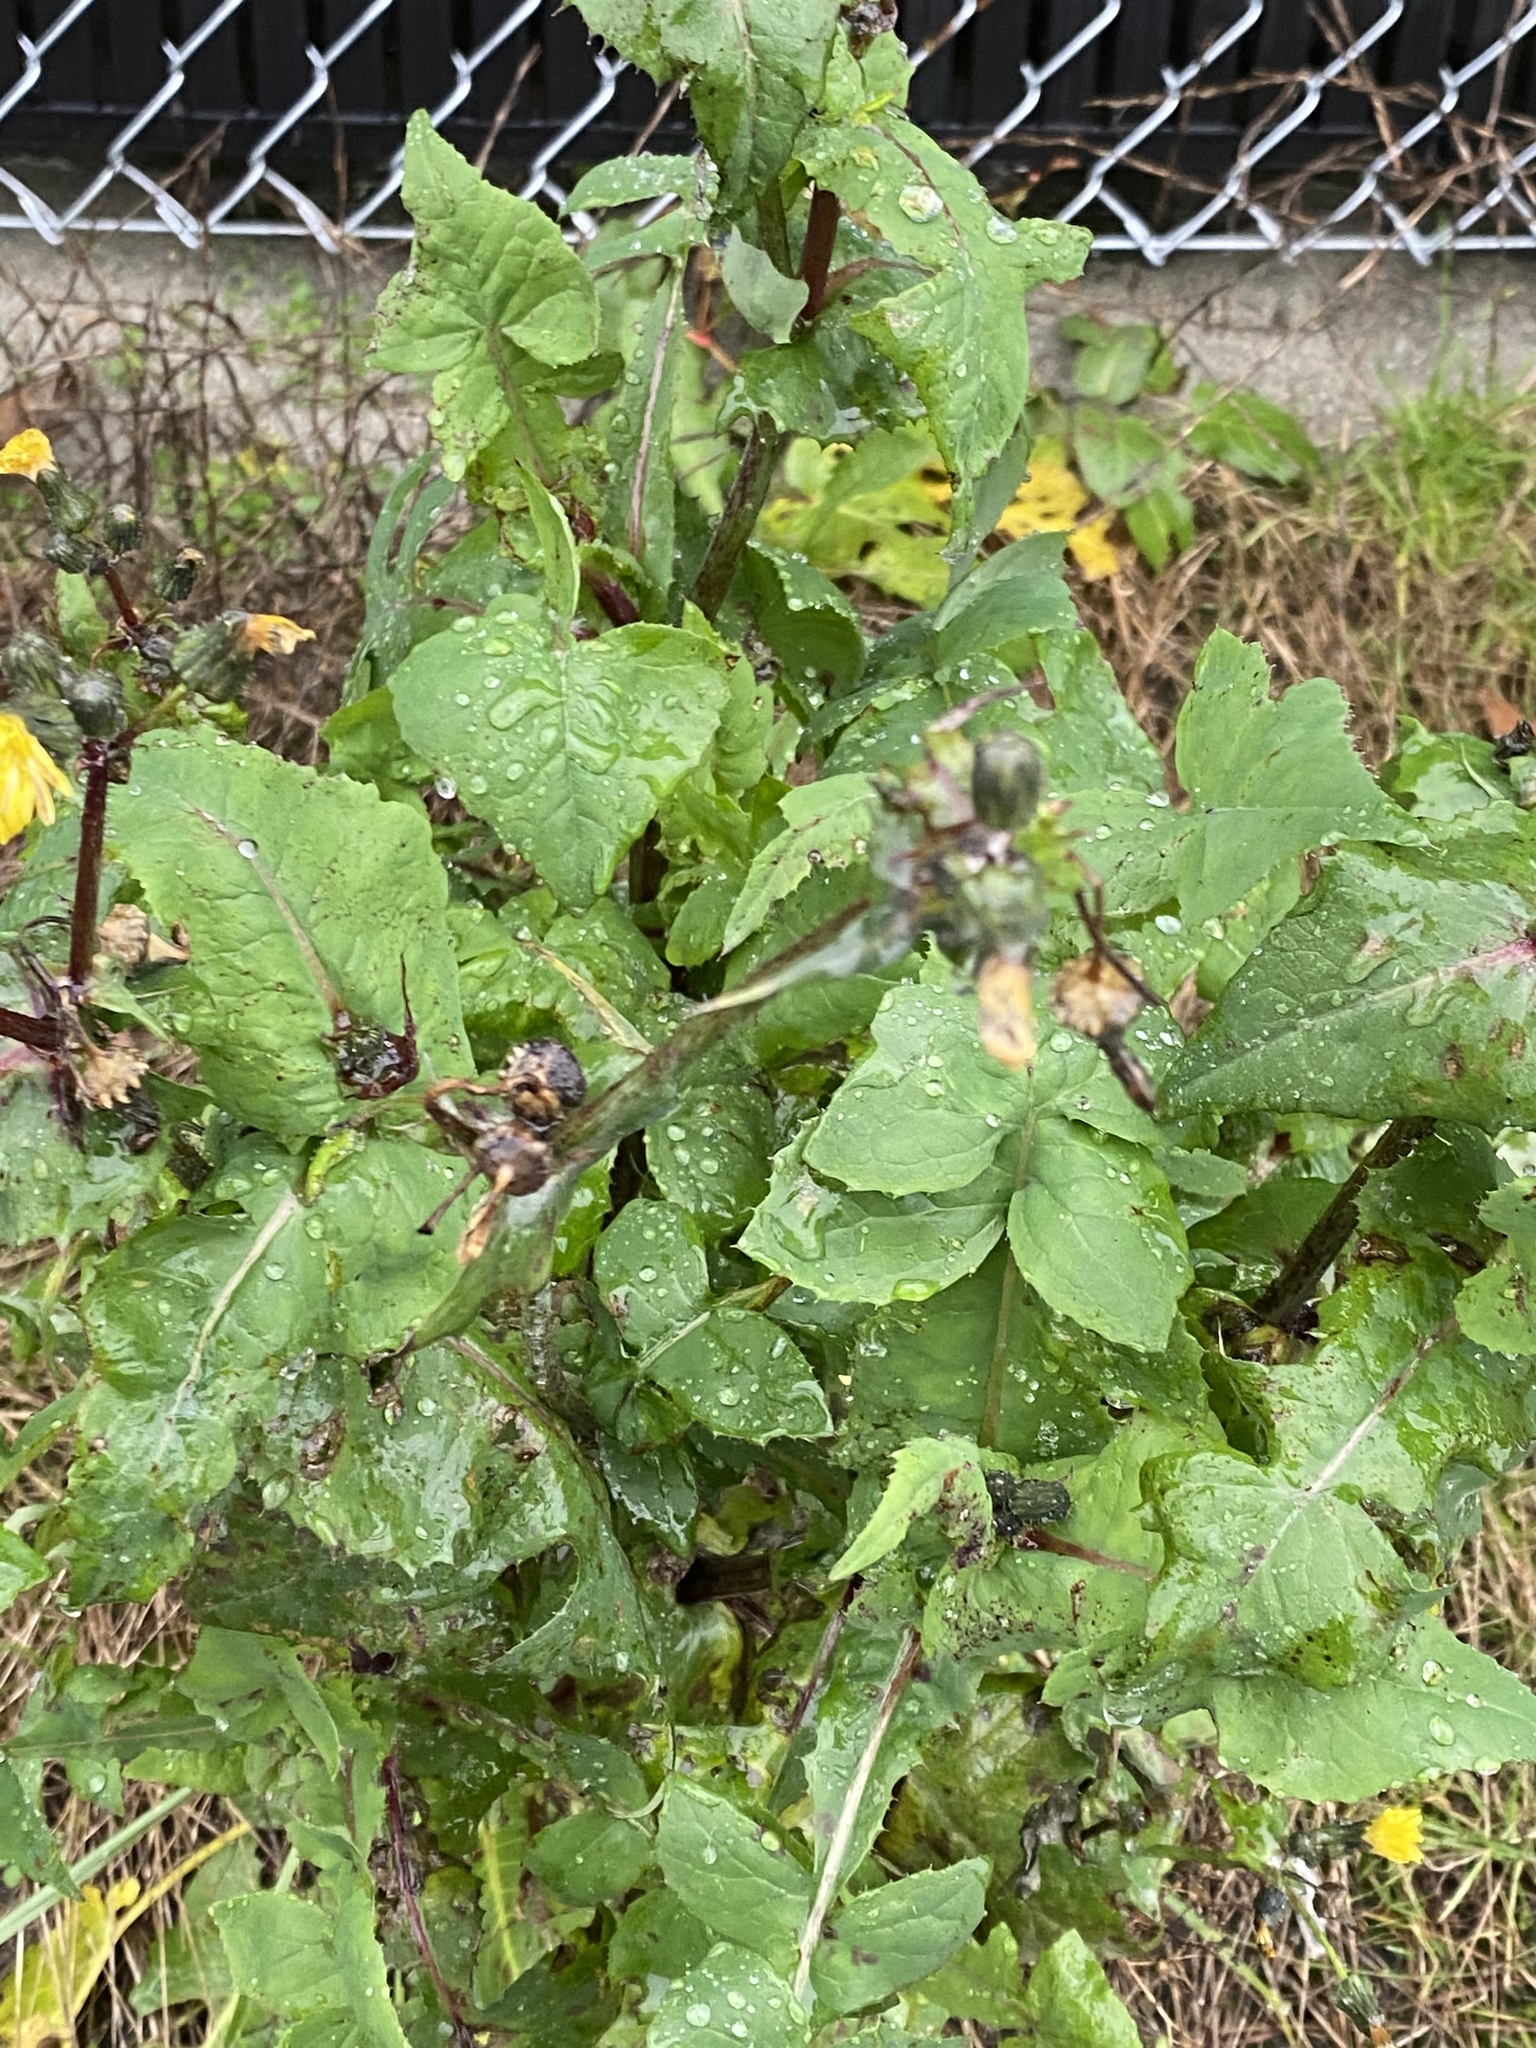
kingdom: Plantae
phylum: Tracheophyta
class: Magnoliopsida
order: Asterales
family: Asteraceae
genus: Sonchus
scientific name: Sonchus oleraceus
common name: Common sowthistle
